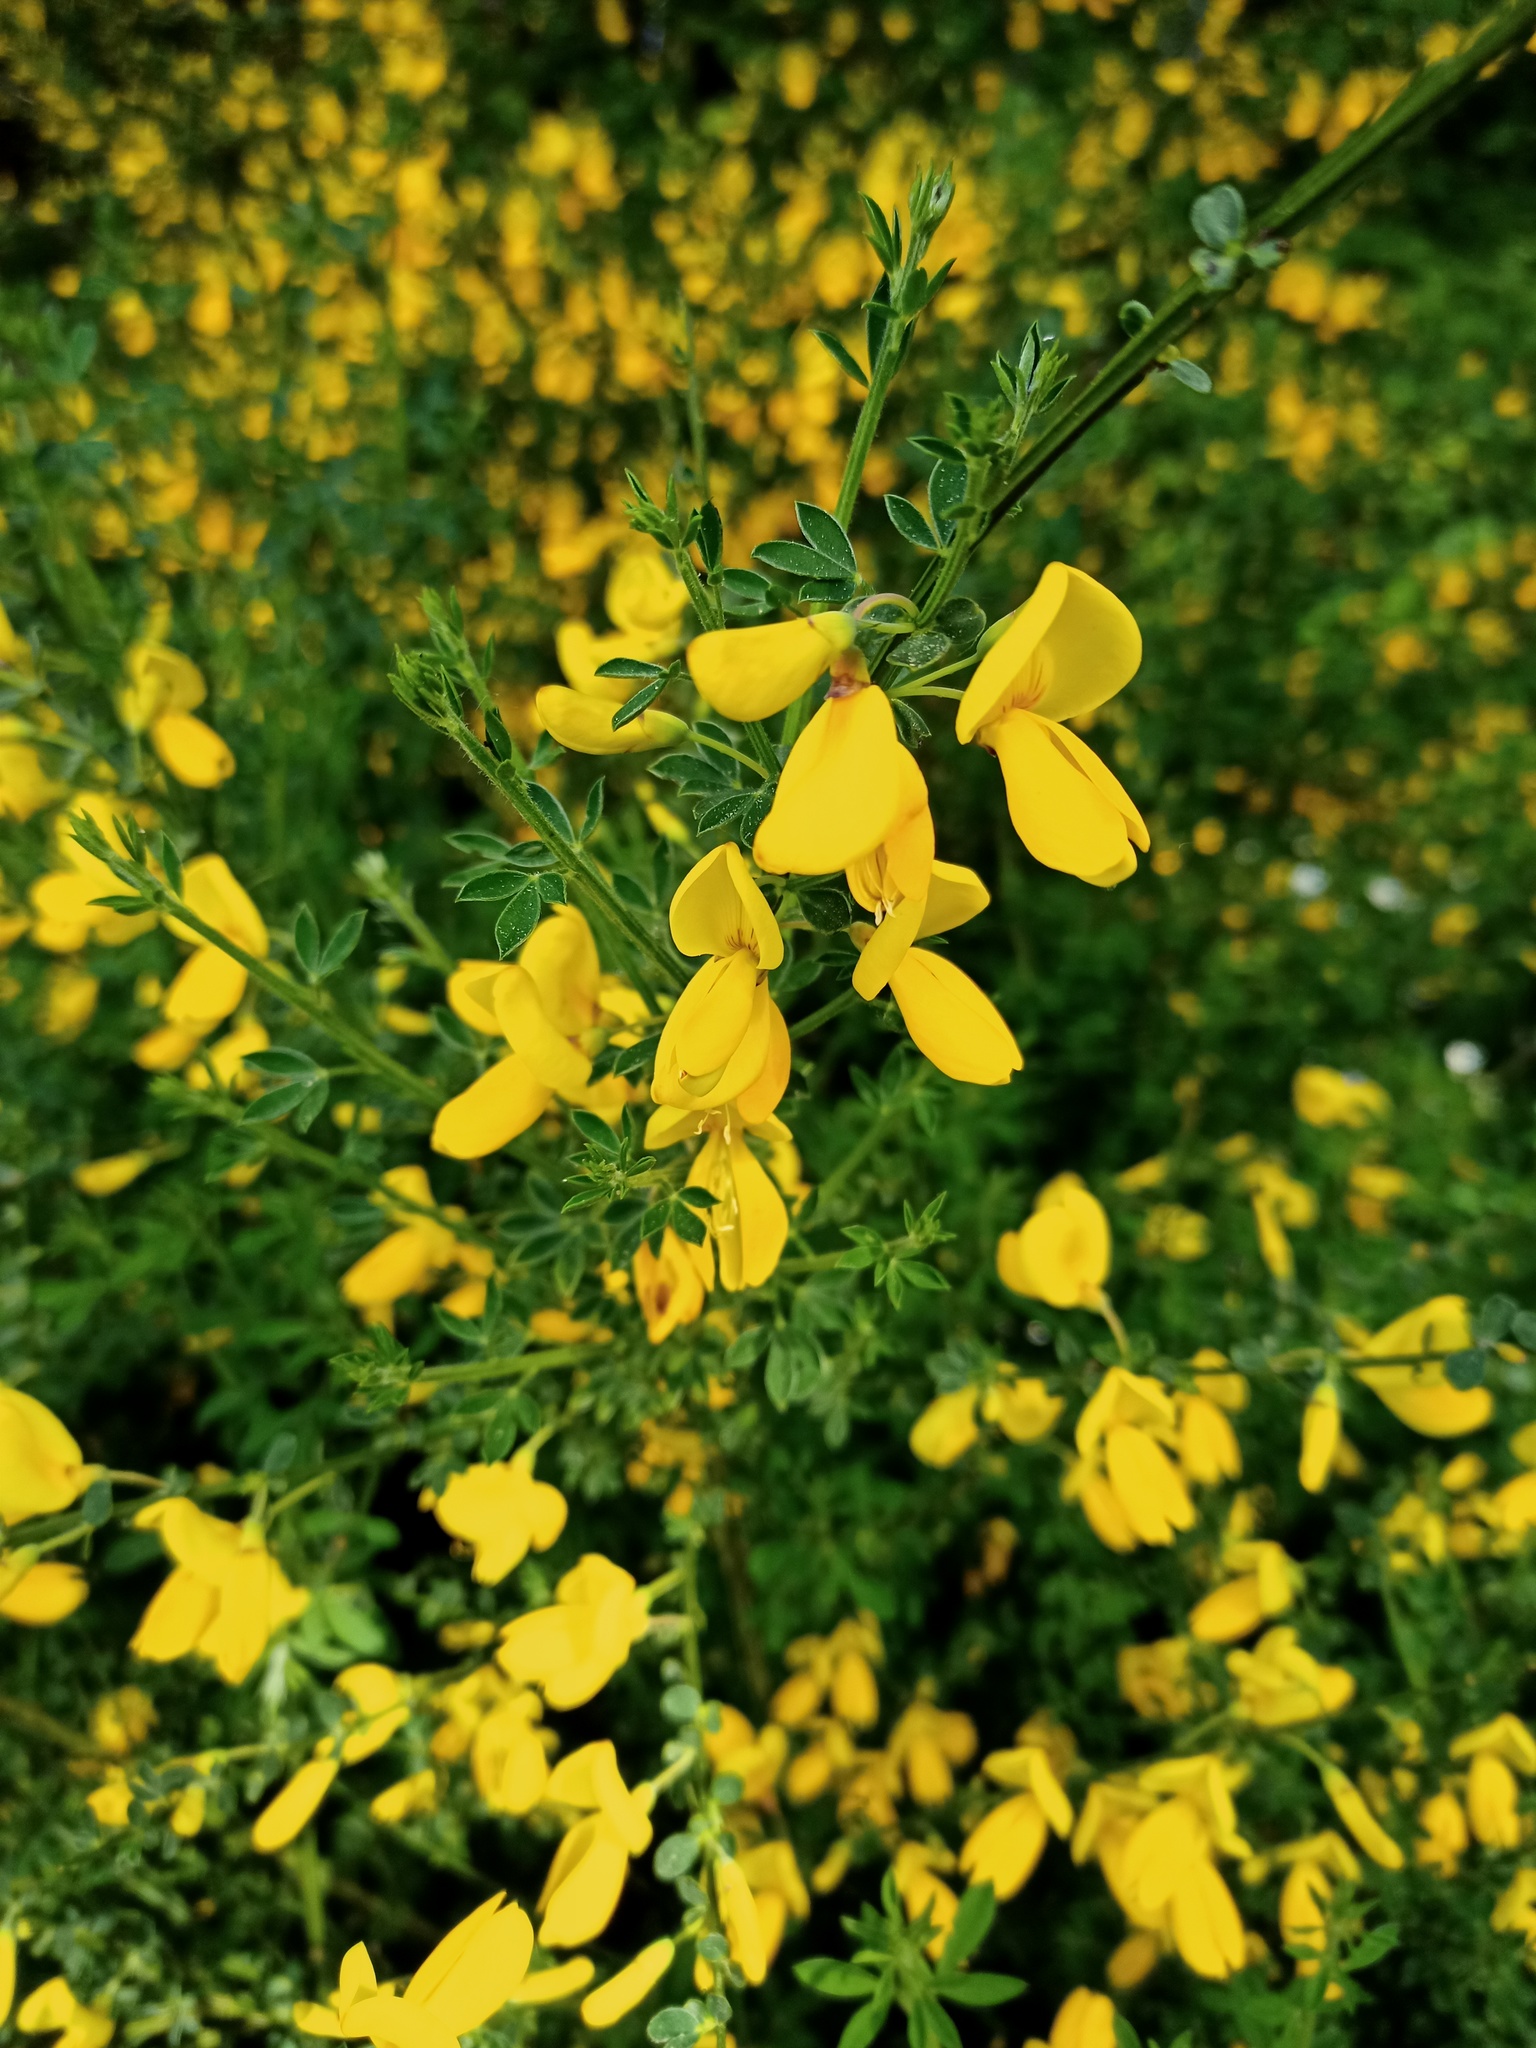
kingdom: Plantae
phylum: Tracheophyta
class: Magnoliopsida
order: Fabales
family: Fabaceae
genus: Cytisus
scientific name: Cytisus scoparius
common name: Scotch broom
